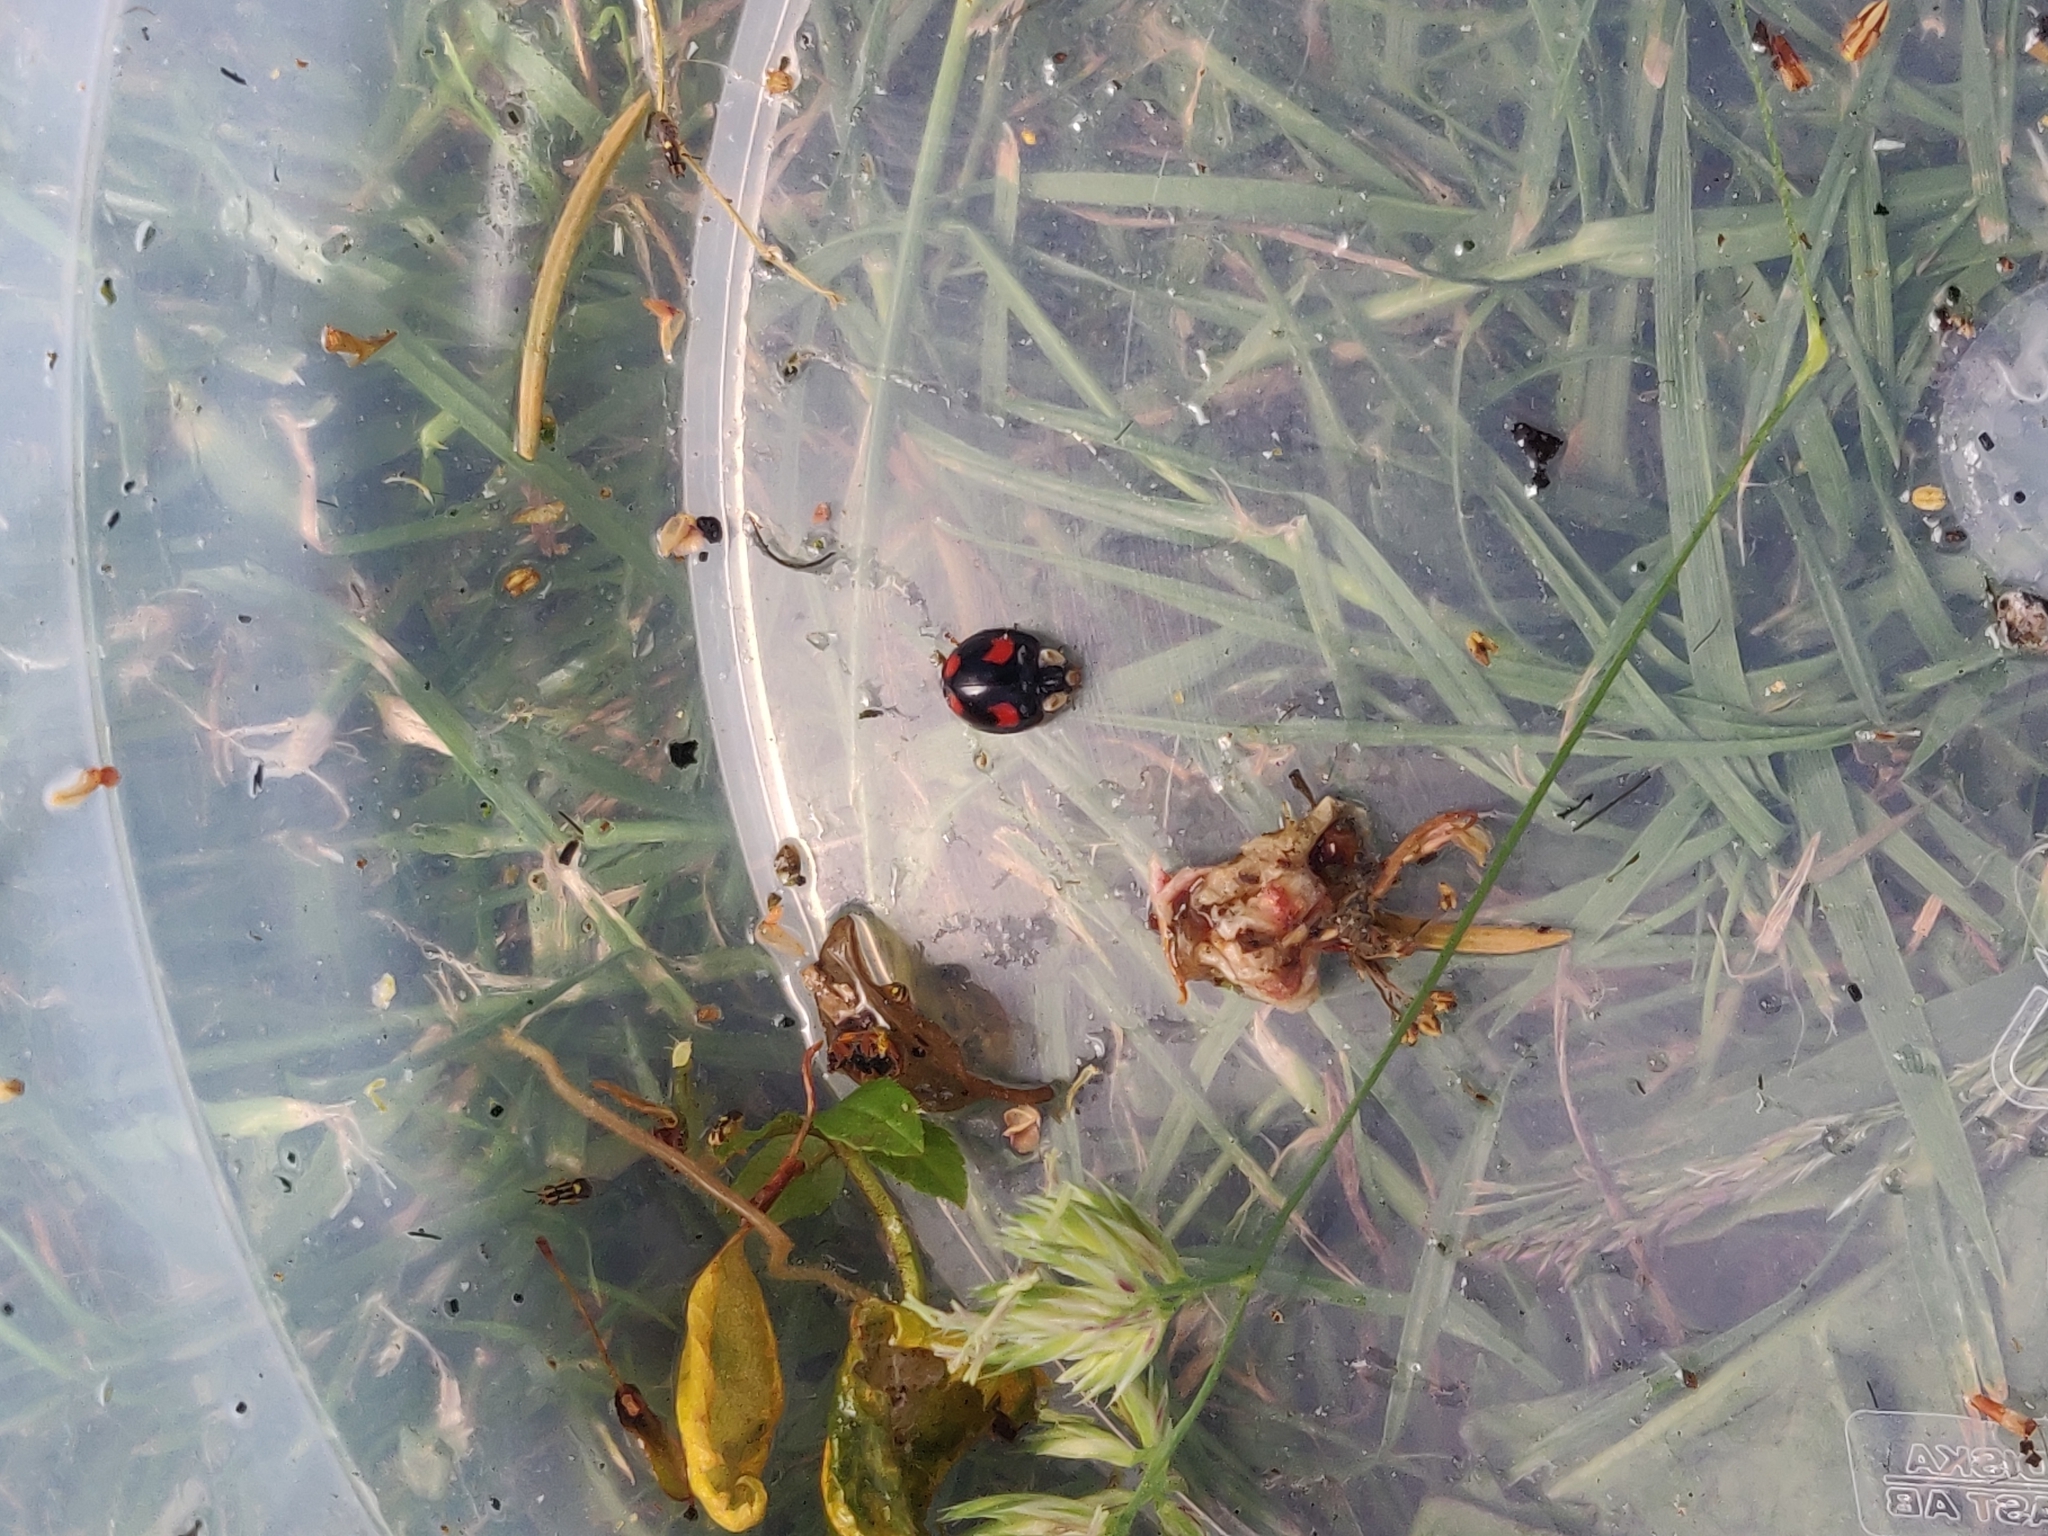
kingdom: Animalia
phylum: Arthropoda
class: Insecta
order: Coleoptera
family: Coccinellidae
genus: Harmonia
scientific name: Harmonia axyridis
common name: Harlequin ladybird
